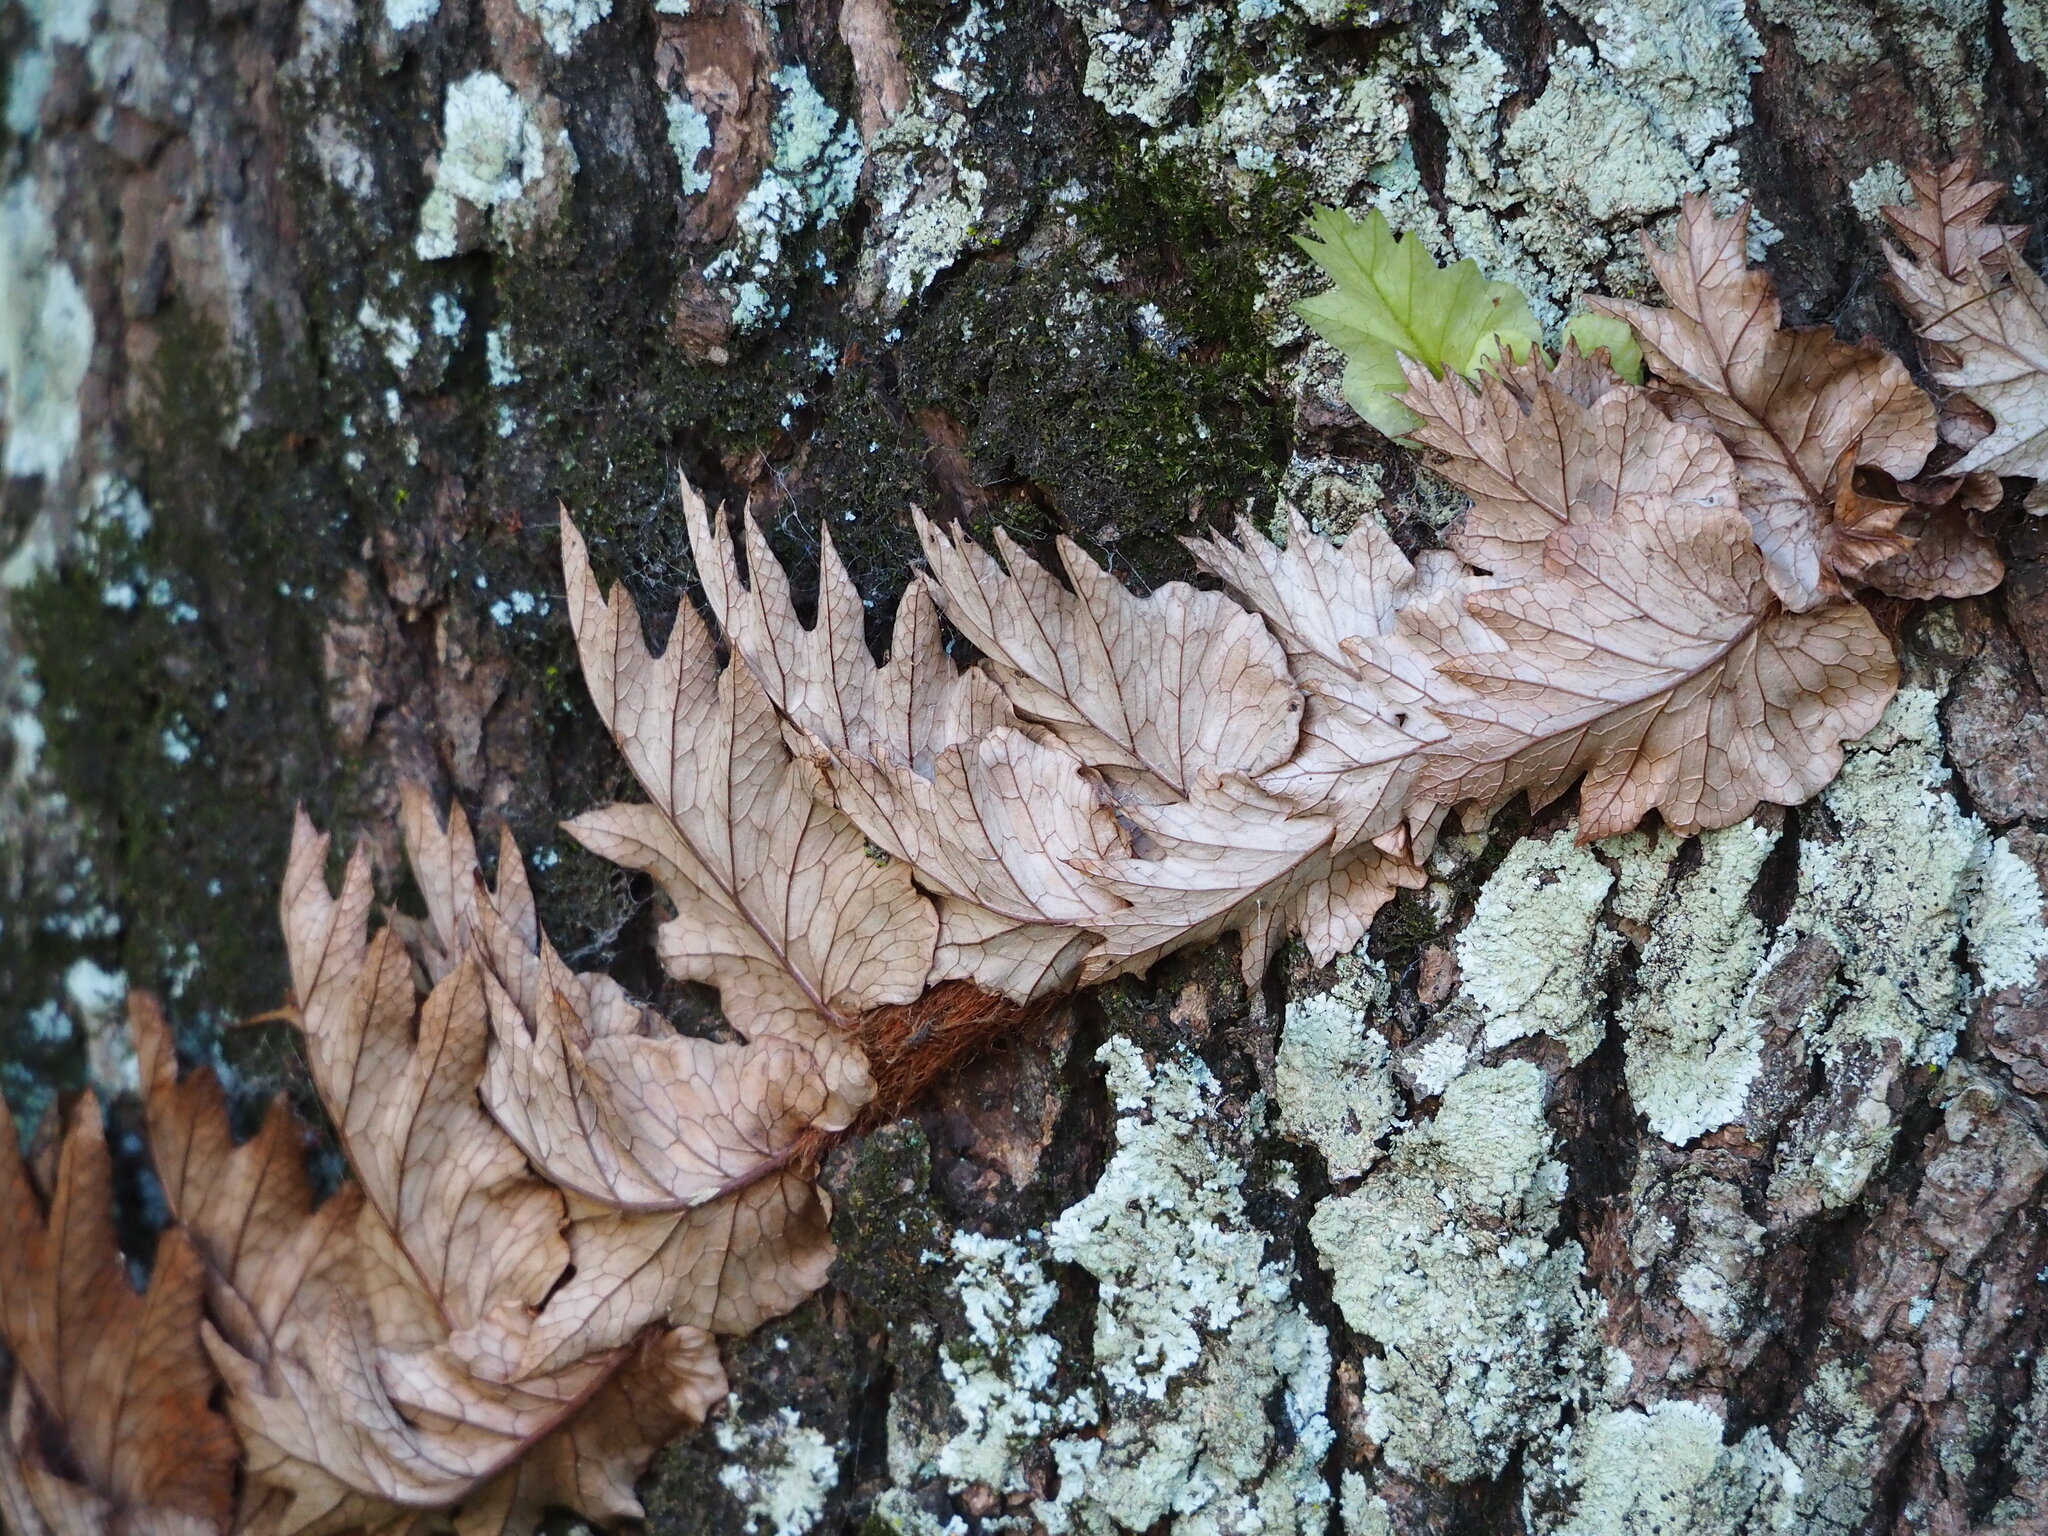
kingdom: Plantae
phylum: Tracheophyta
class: Polypodiopsida
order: Polypodiales
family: Polypodiaceae
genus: Drynaria
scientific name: Drynaria roosii
